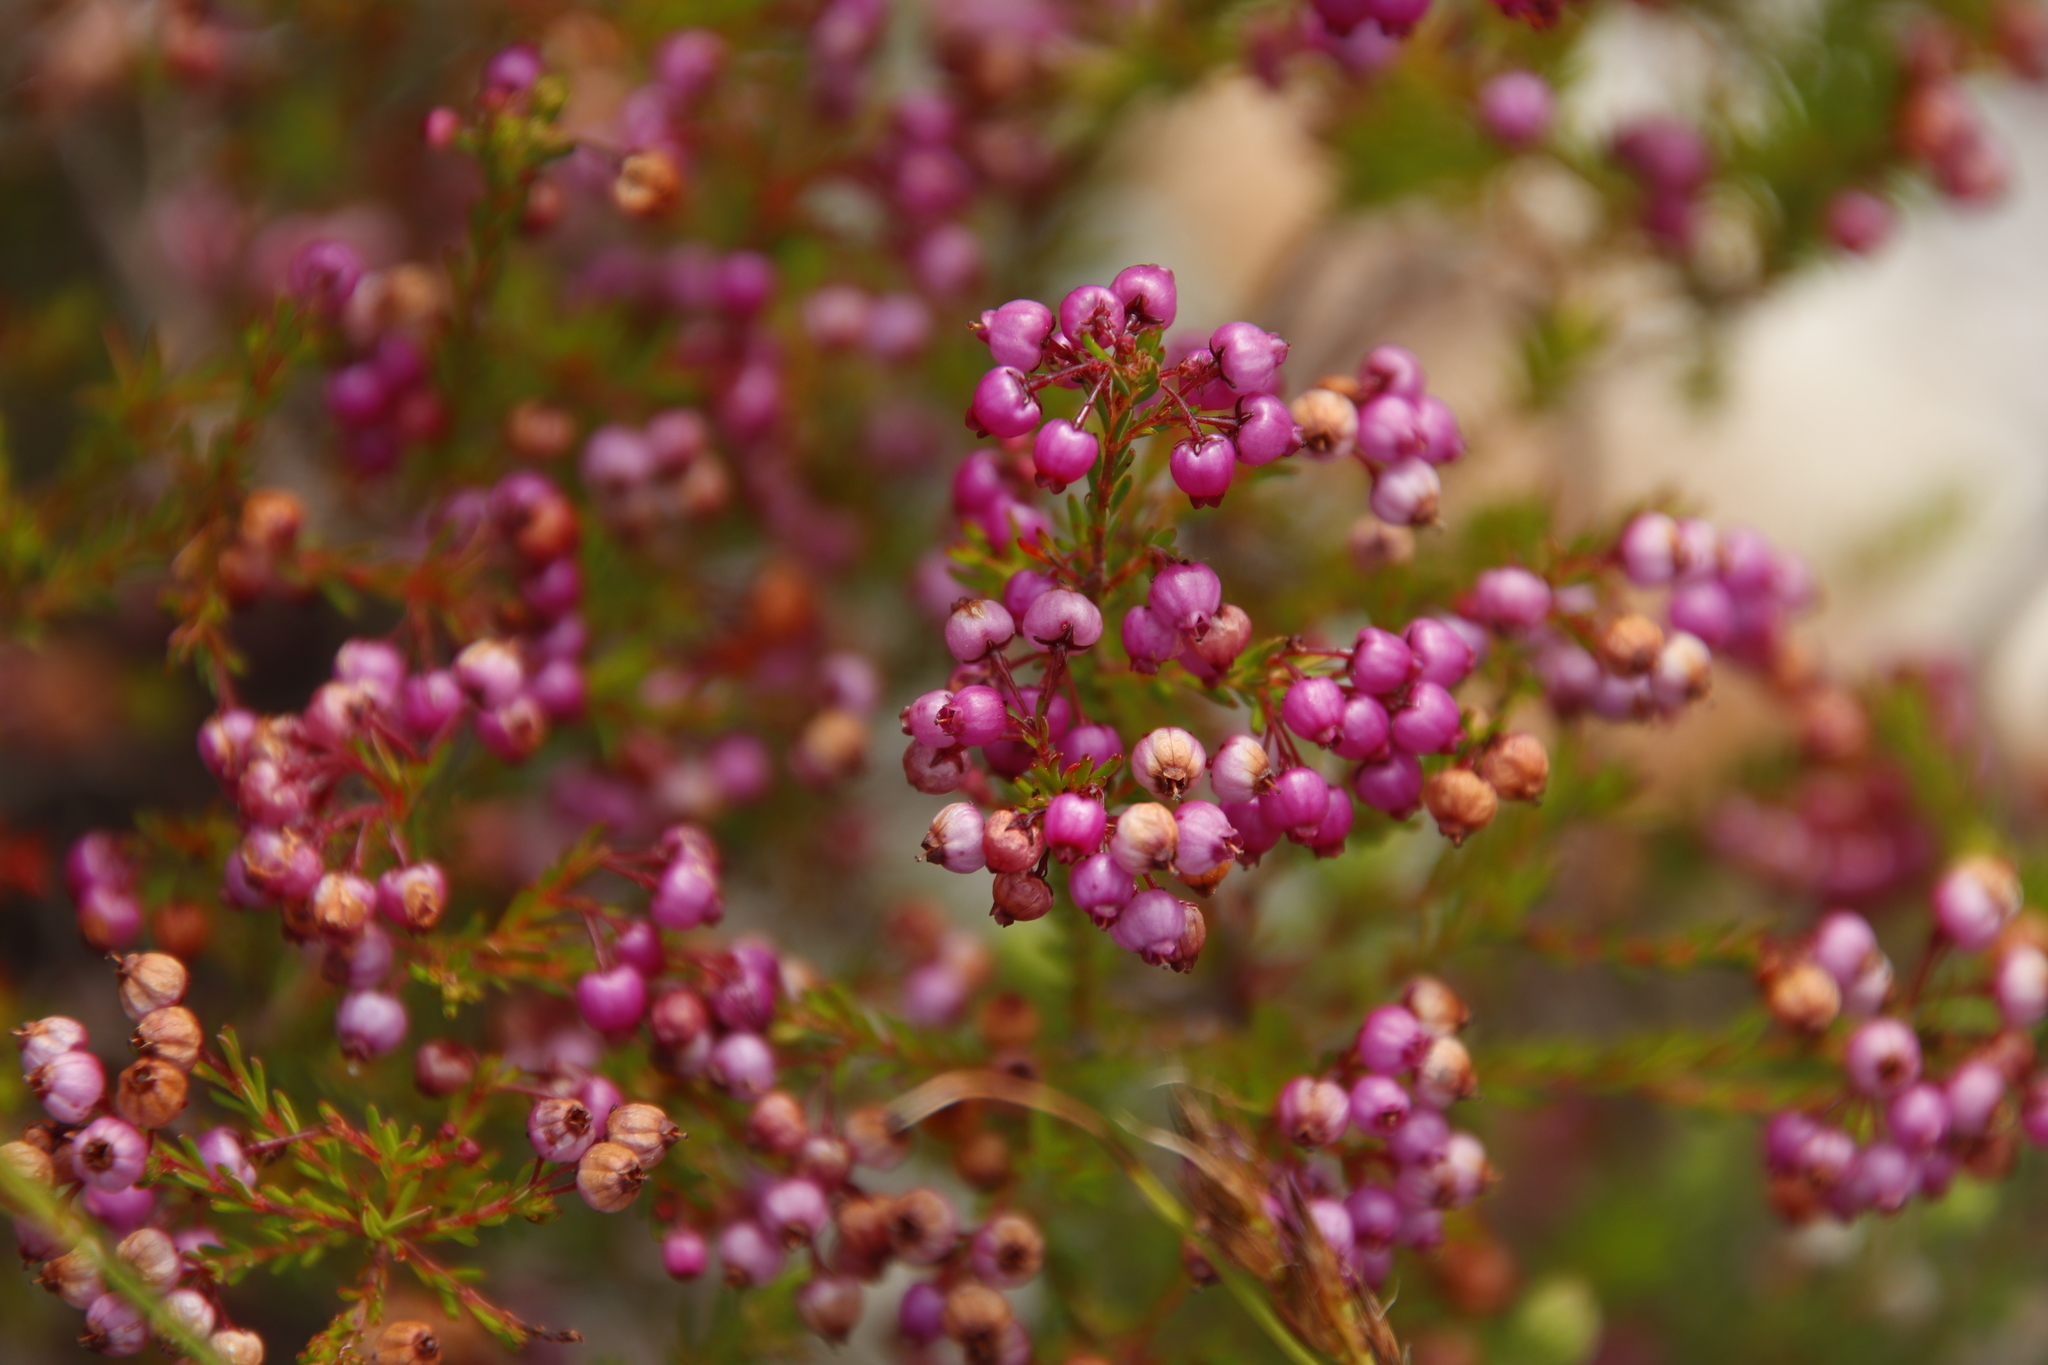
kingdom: Plantae
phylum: Tracheophyta
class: Magnoliopsida
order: Ericales
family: Ericaceae
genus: Erica
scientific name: Erica multumbellifera
